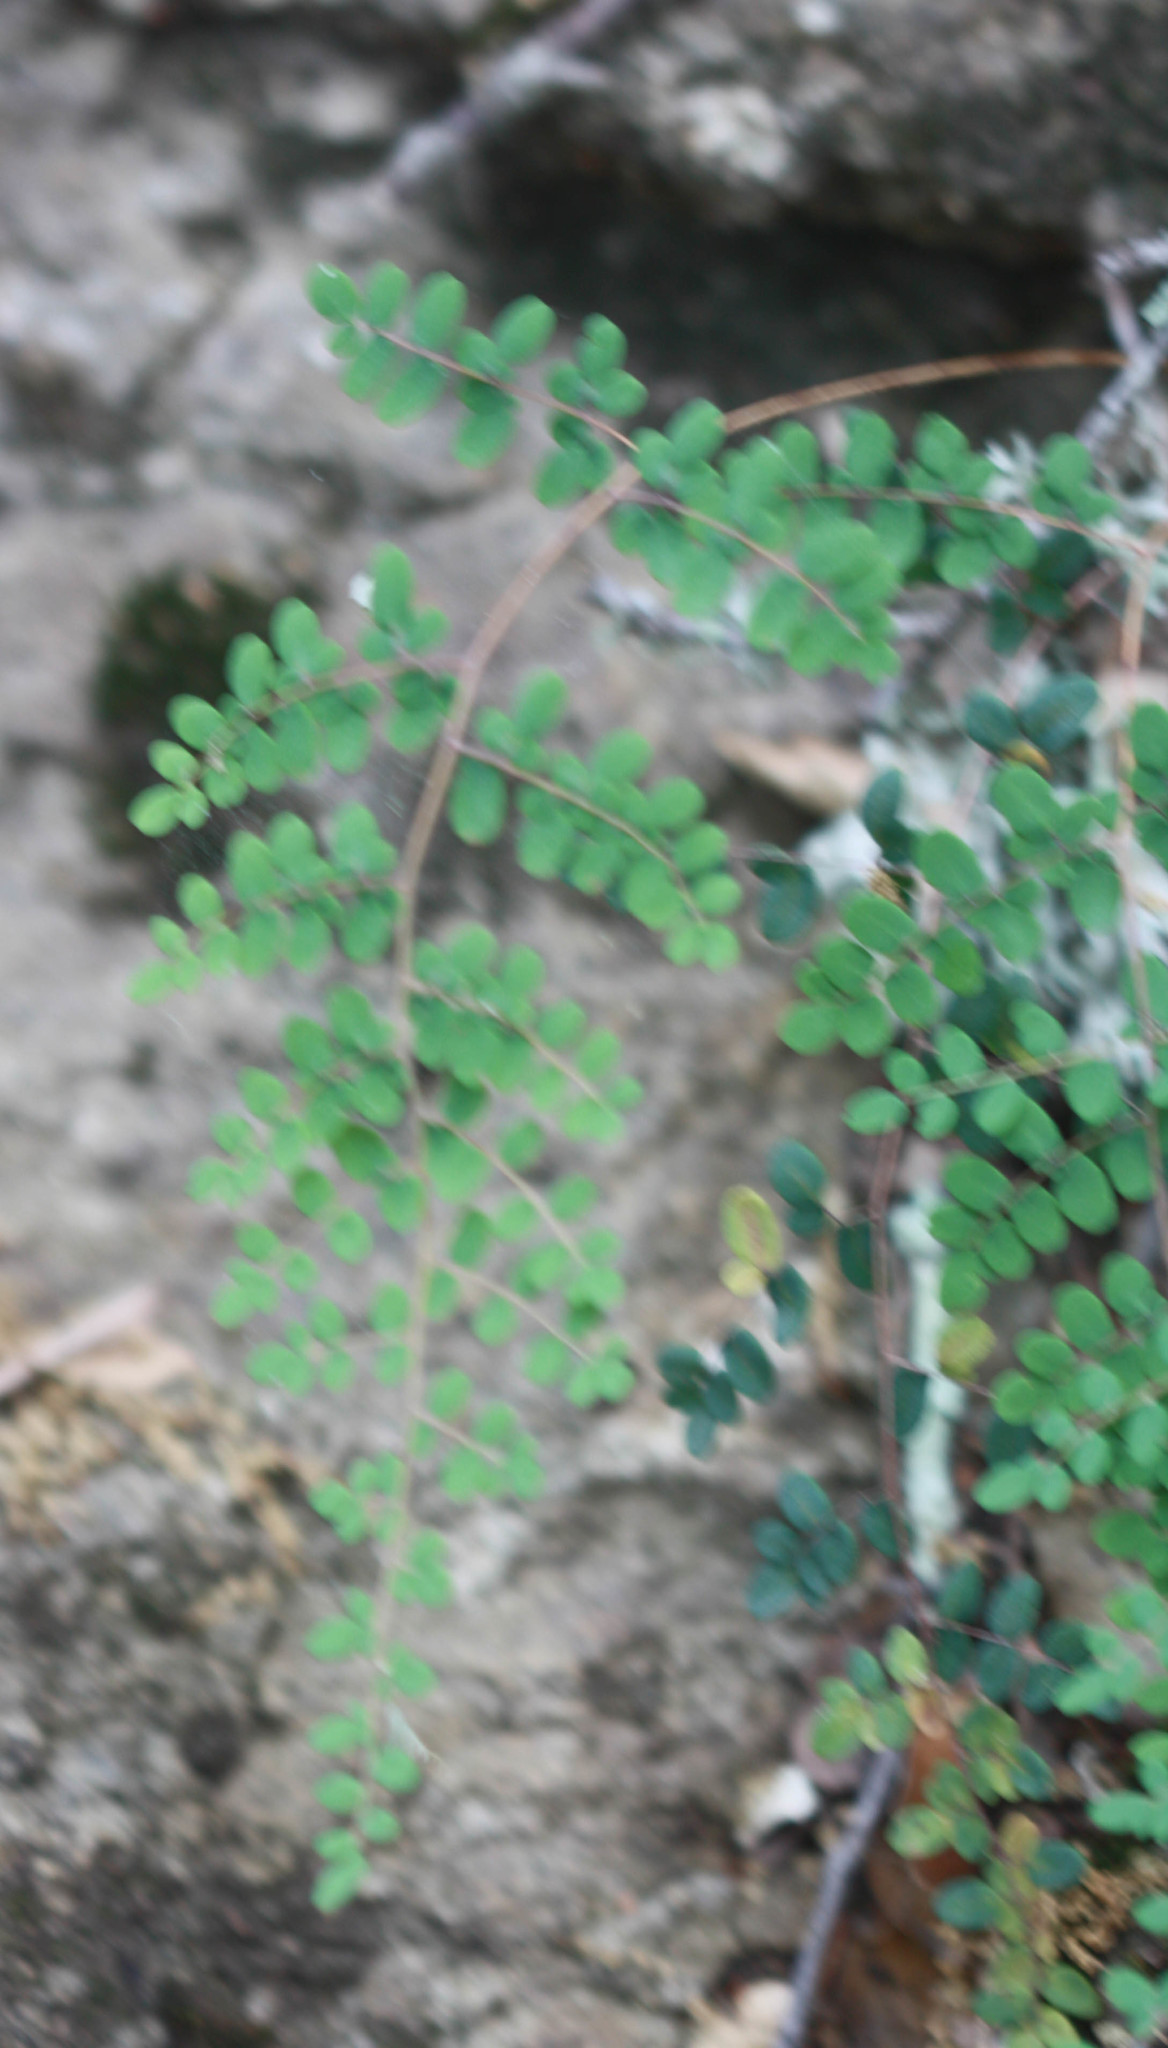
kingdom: Plantae
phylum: Tracheophyta
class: Polypodiopsida
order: Polypodiales
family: Pteridaceae
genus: Pellaea
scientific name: Pellaea andromedifolia
